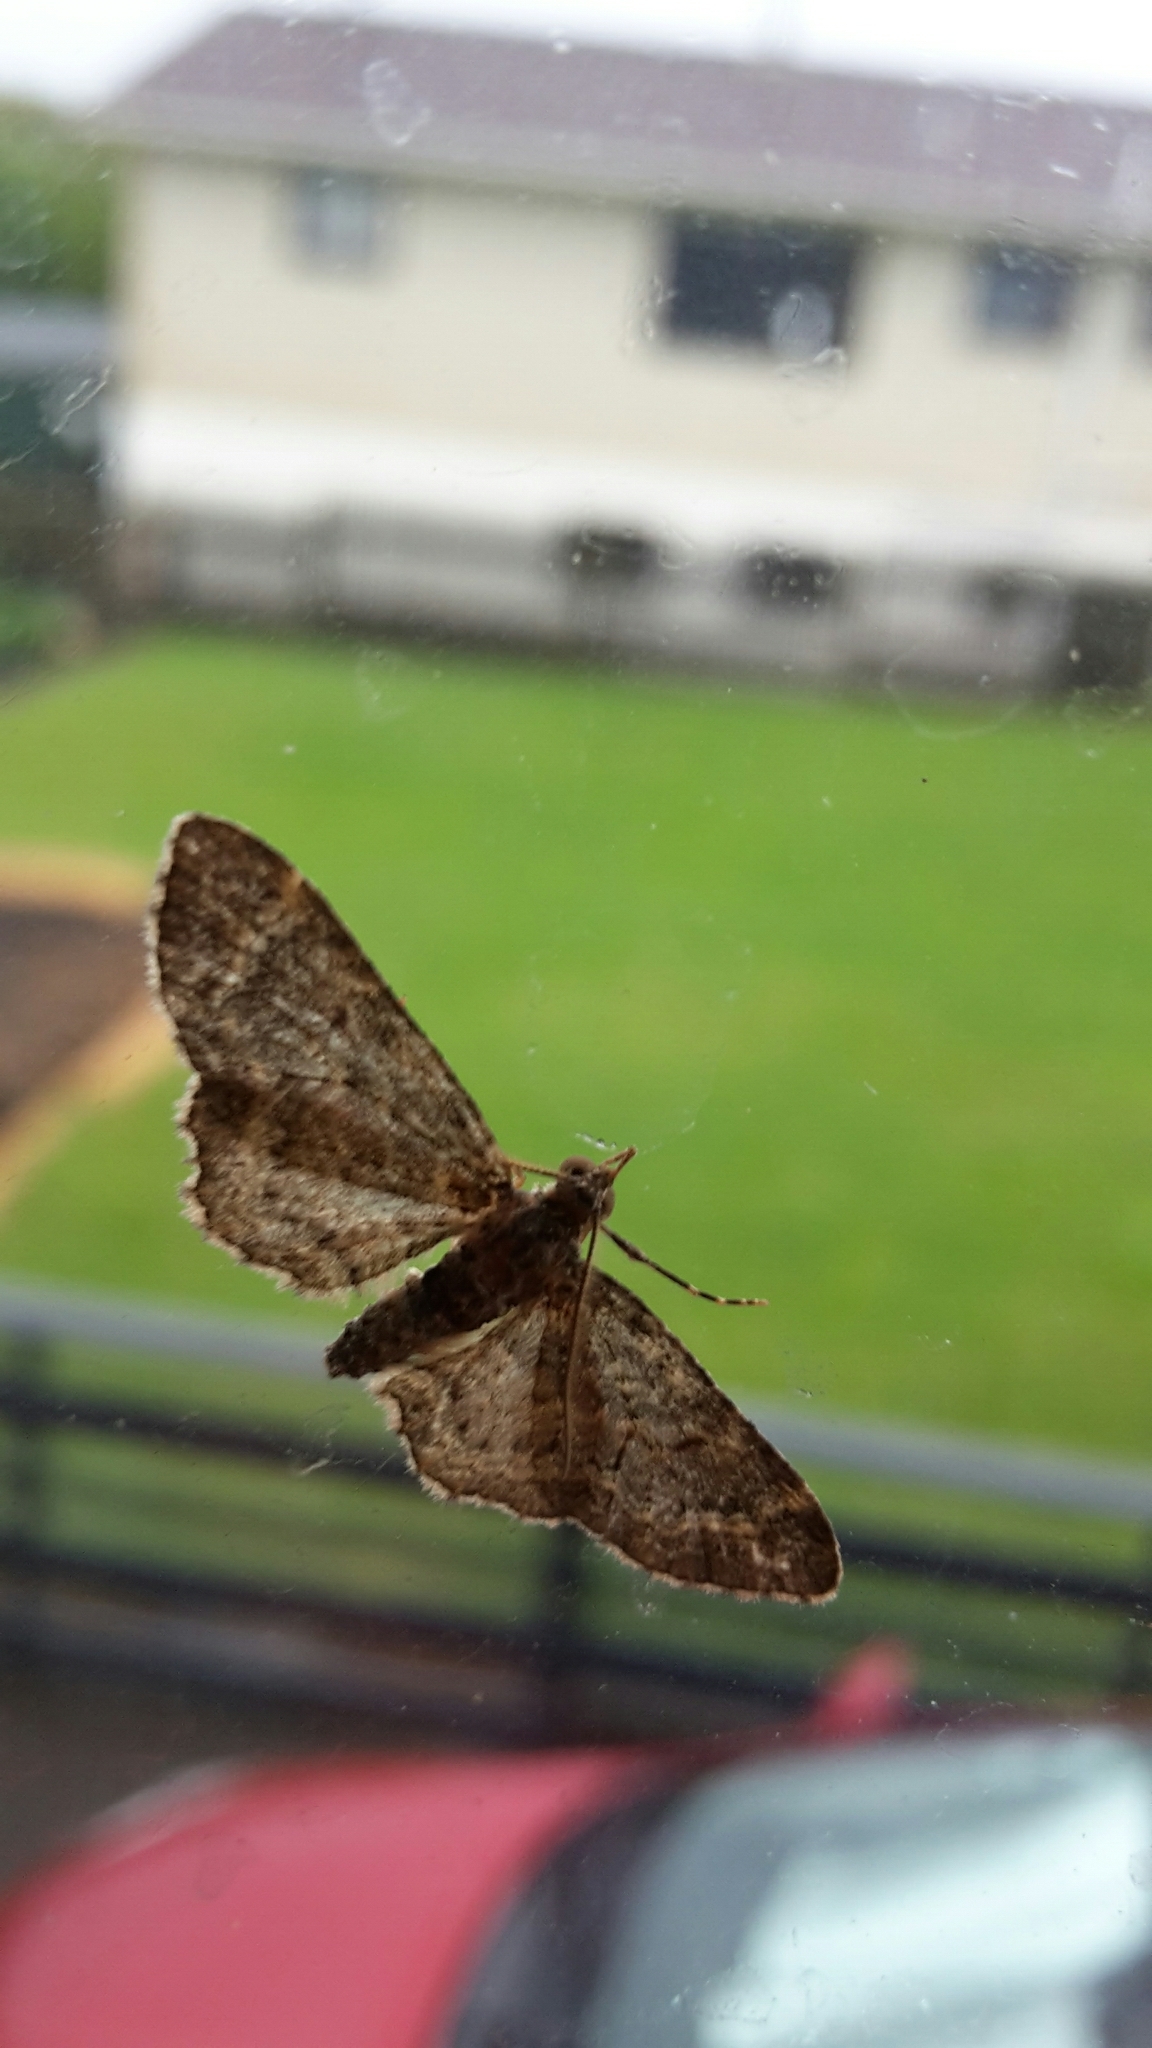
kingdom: Animalia
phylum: Arthropoda
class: Insecta
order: Lepidoptera
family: Geometridae
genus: Pasiphila
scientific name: Pasiphila lunata
